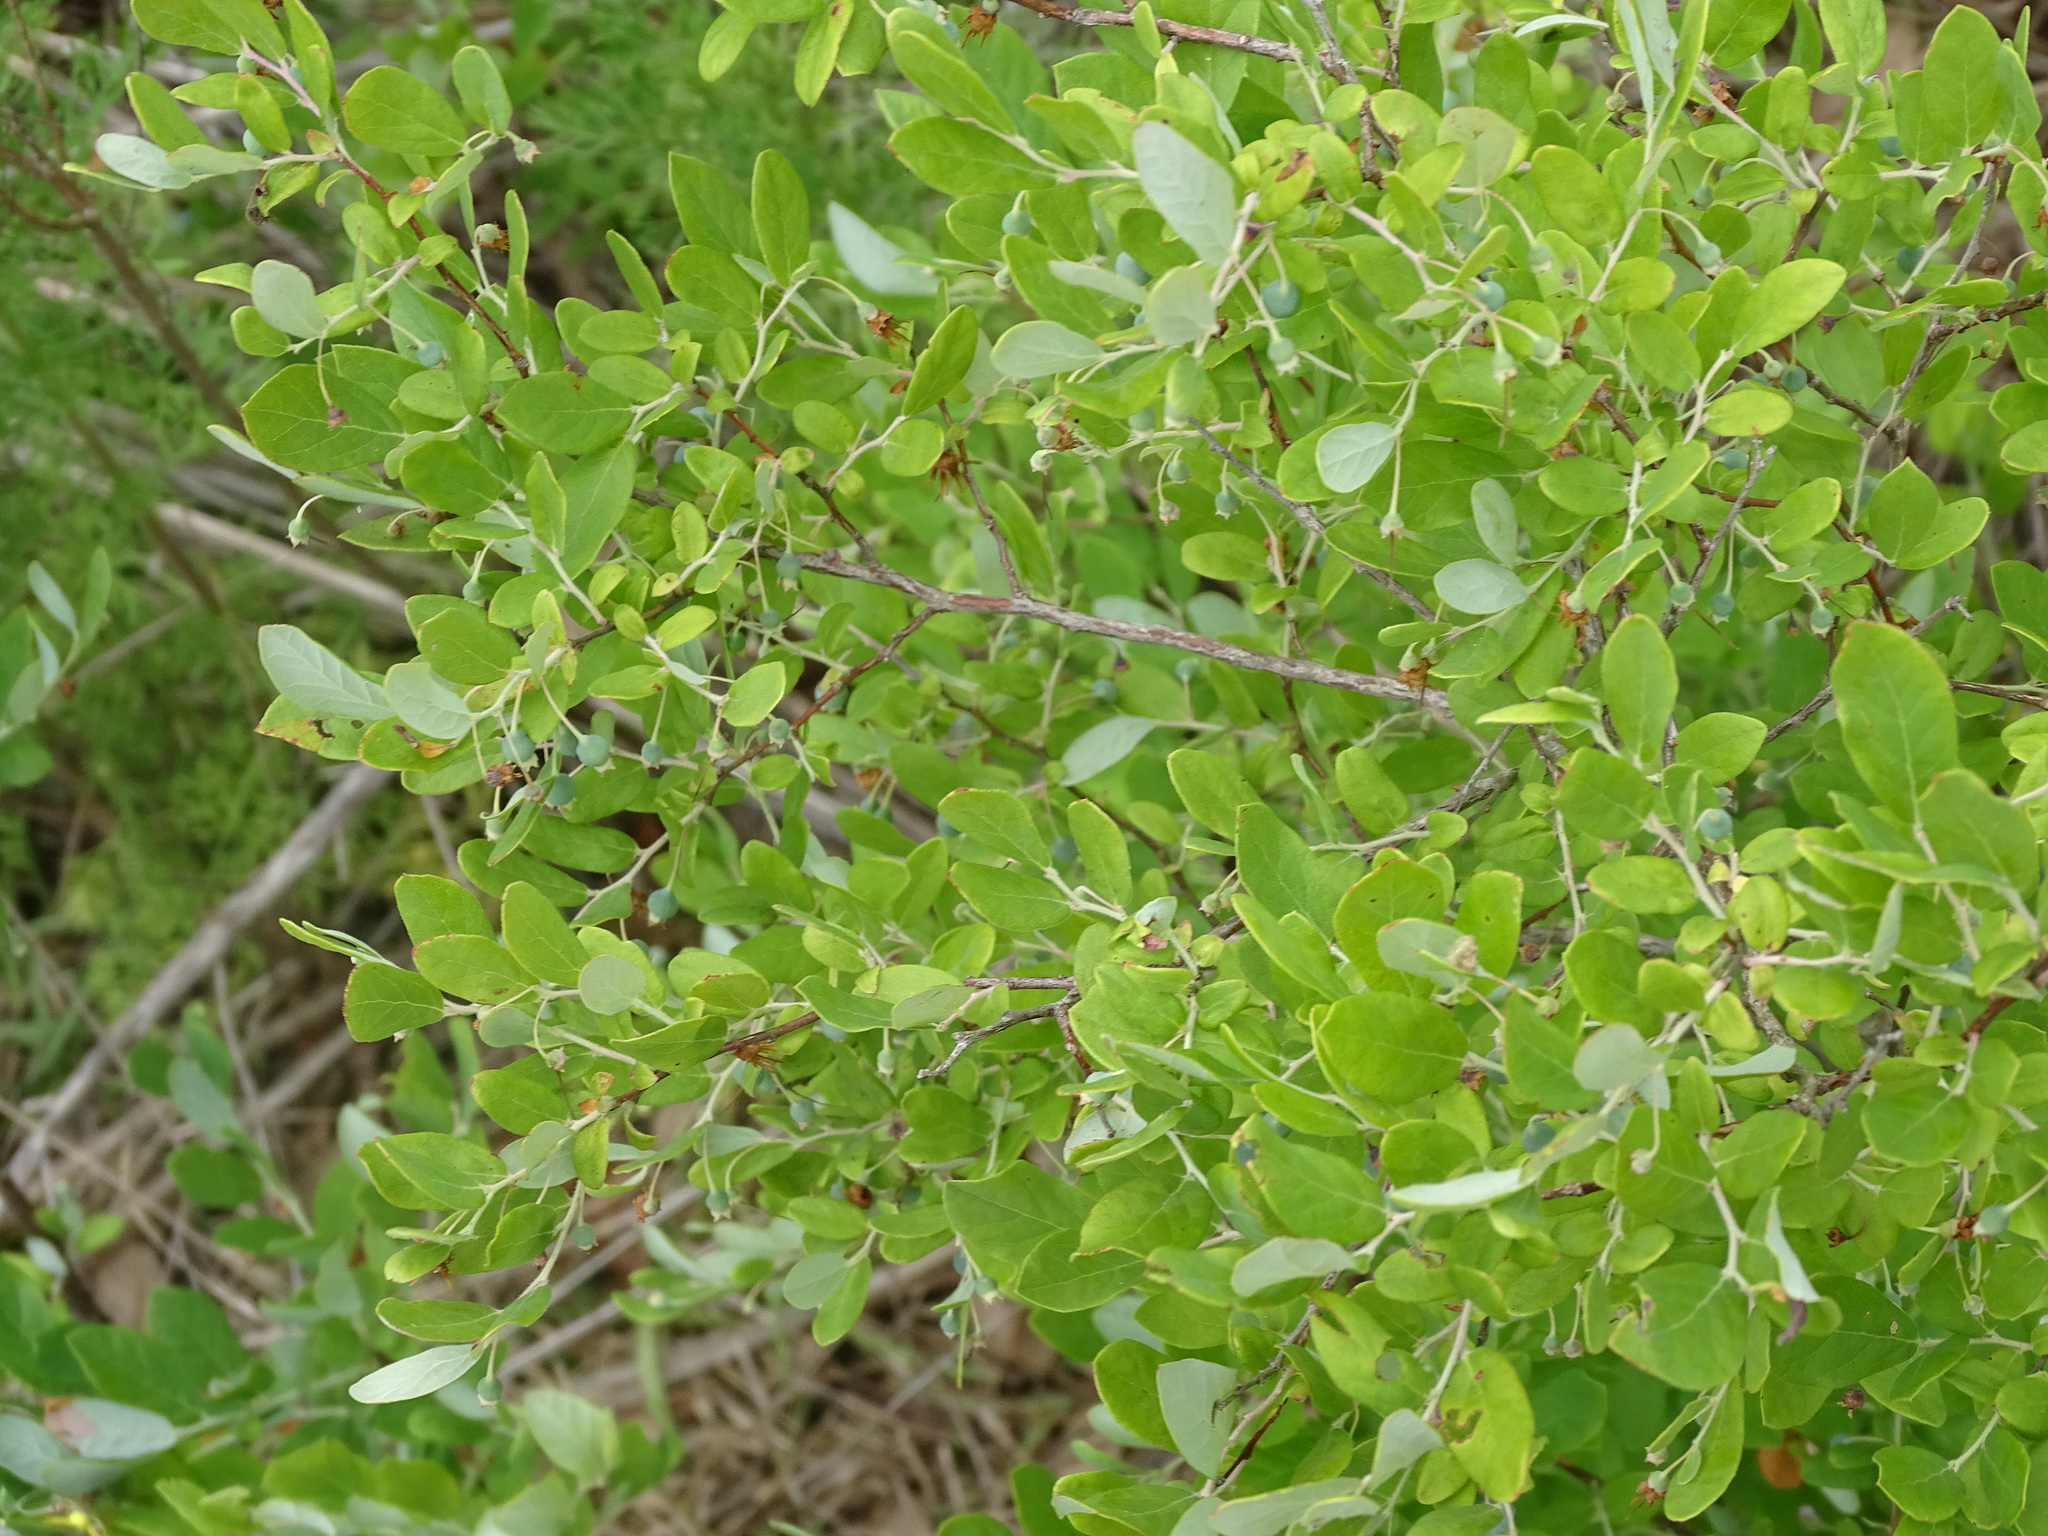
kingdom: Plantae
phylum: Tracheophyta
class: Magnoliopsida
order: Ericales
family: Ericaceae
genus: Vaccinium
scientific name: Vaccinium stamineum
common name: Deerberry
